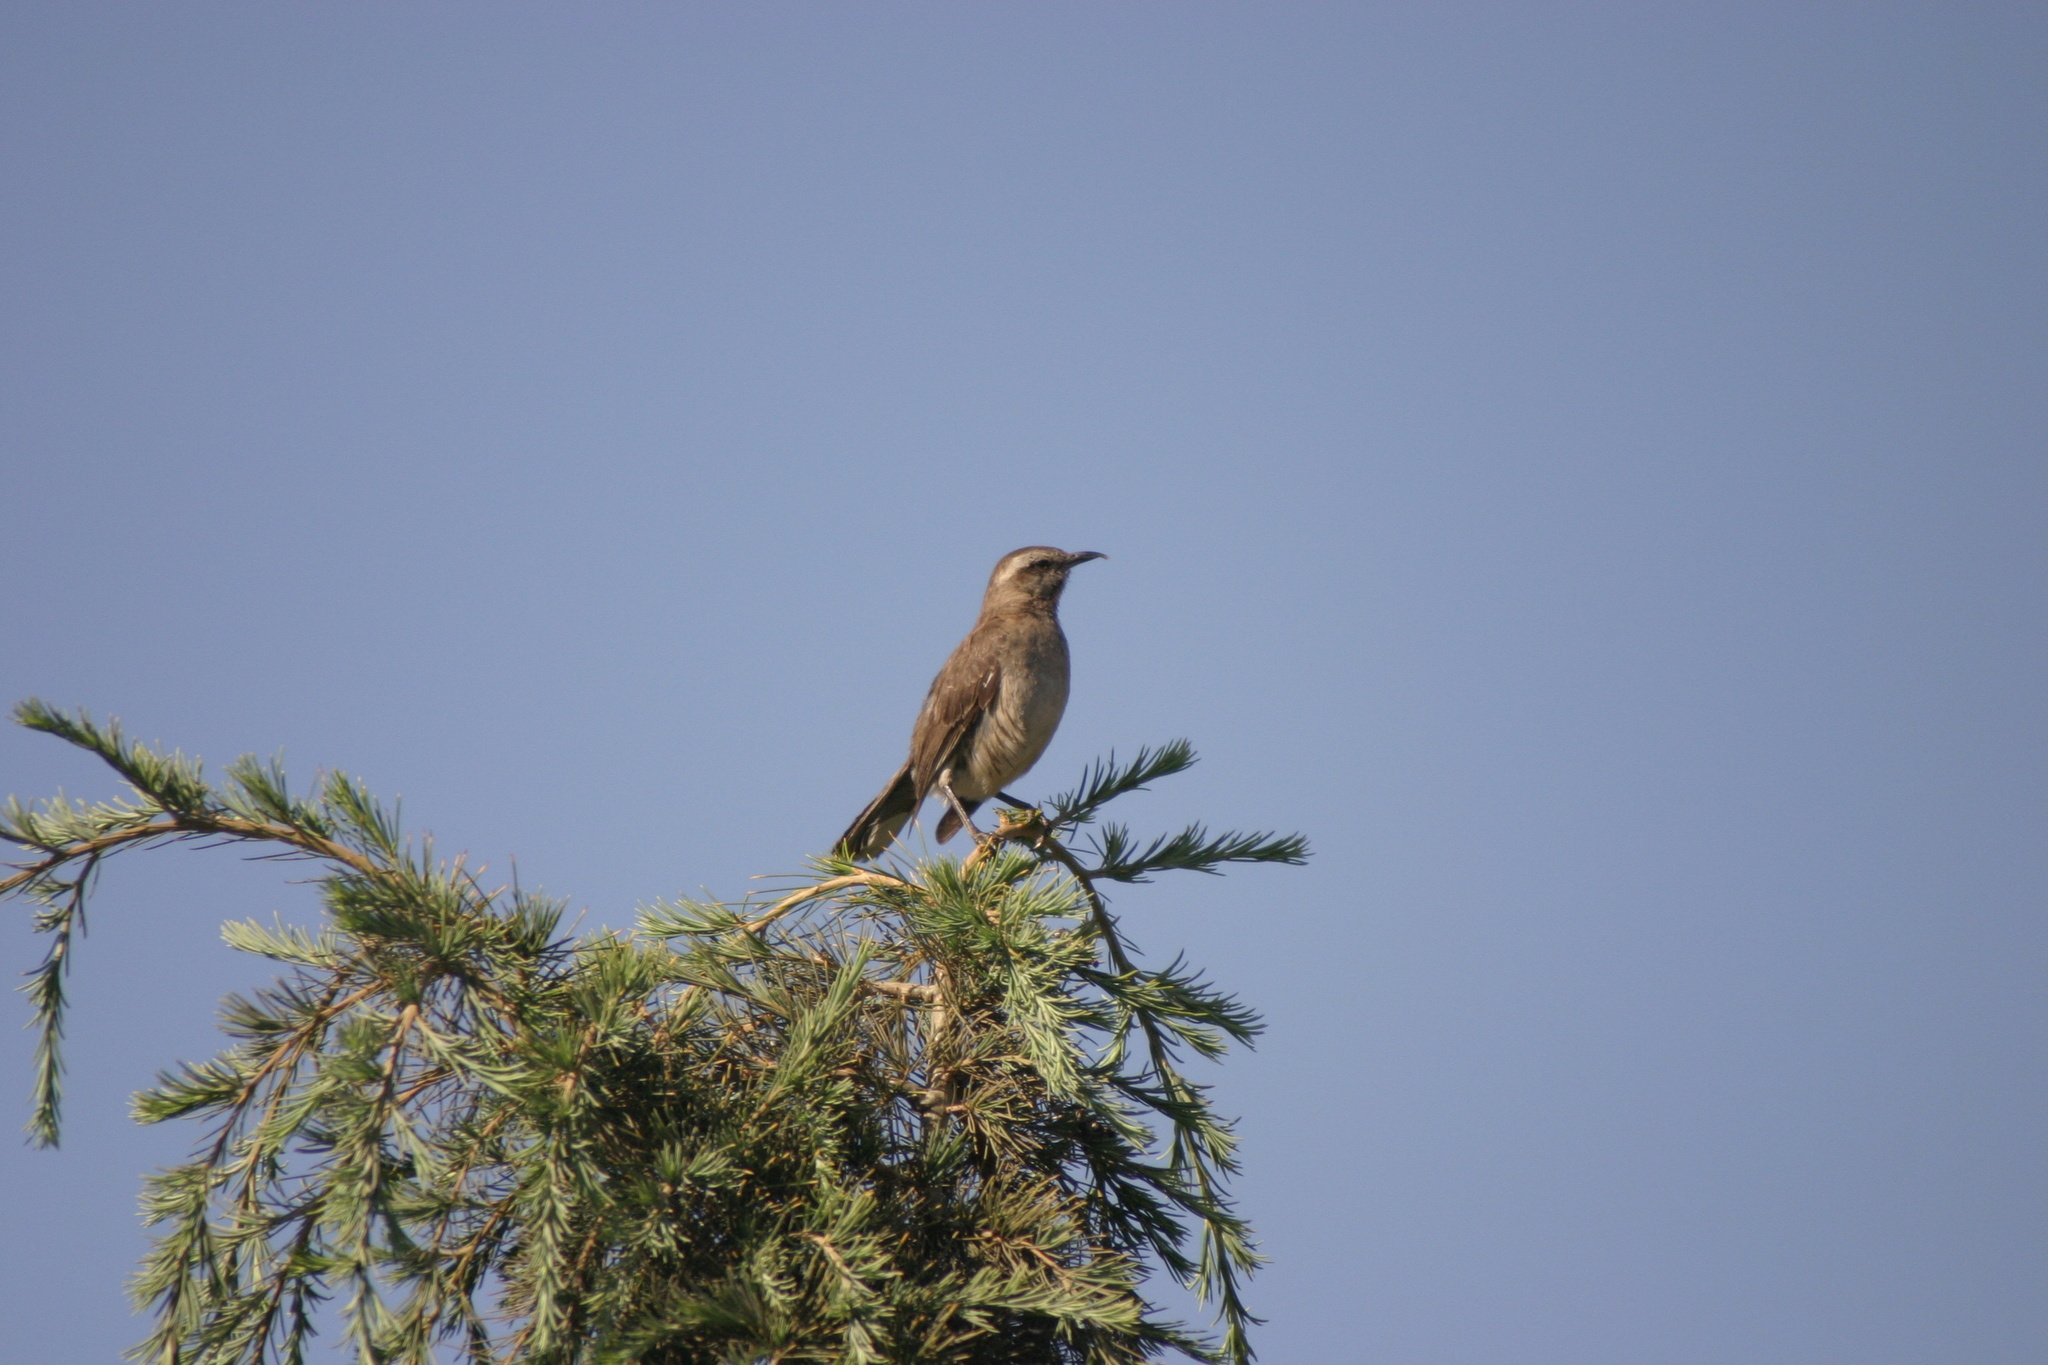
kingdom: Animalia
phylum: Chordata
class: Aves
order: Passeriformes
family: Mimidae
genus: Mimus
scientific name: Mimus thenca
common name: Chilean mockingbird
